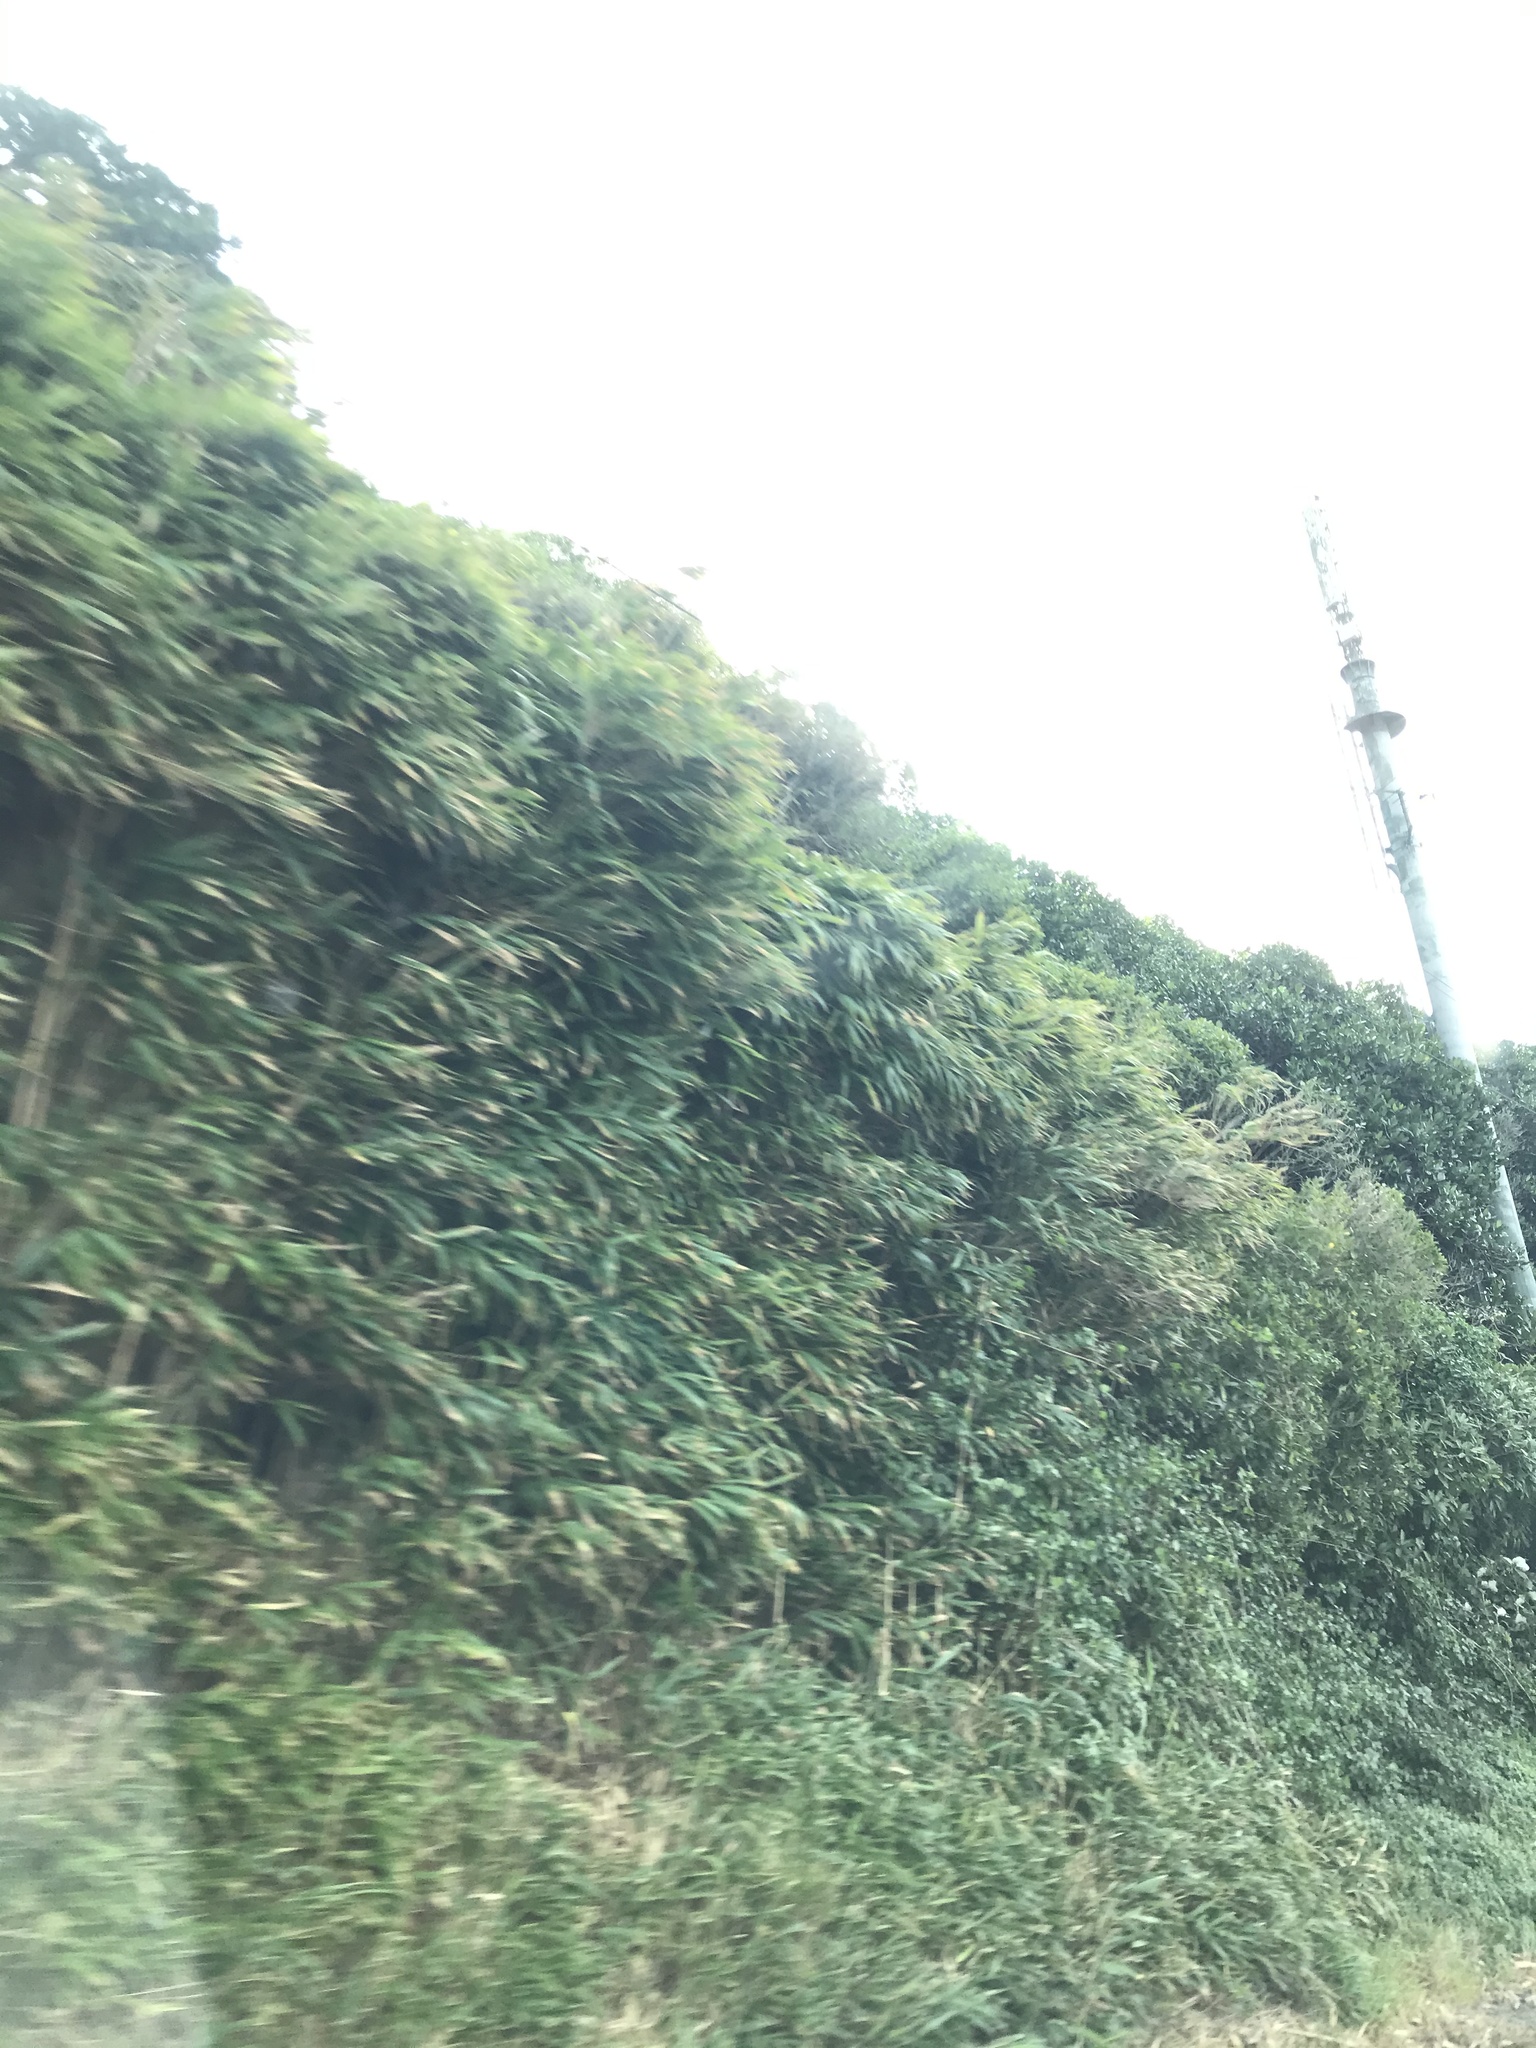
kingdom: Plantae
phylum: Tracheophyta
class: Liliopsida
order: Poales
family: Poaceae
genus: Pseudosasa
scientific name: Pseudosasa japonica
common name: Arrow bamboo
